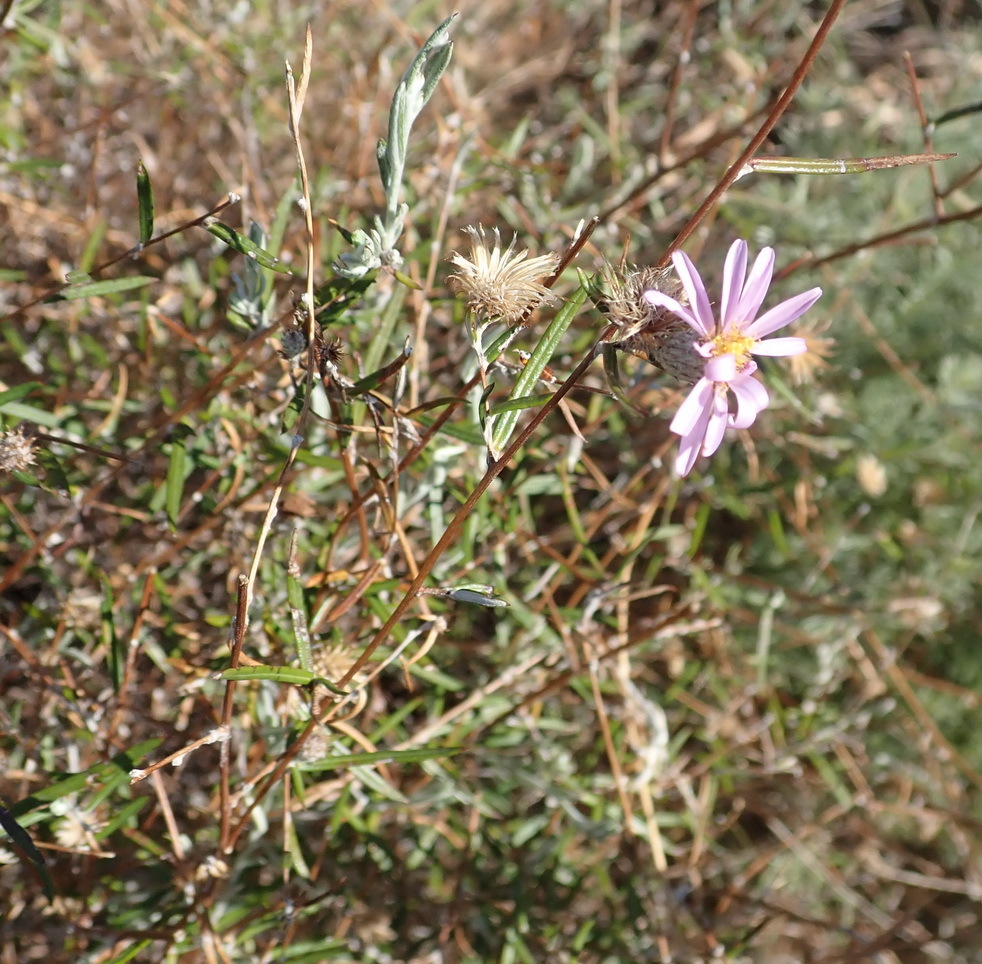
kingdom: Plantae
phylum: Tracheophyta
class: Magnoliopsida
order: Asterales
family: Asteraceae
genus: Athrixia
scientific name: Athrixia elata
